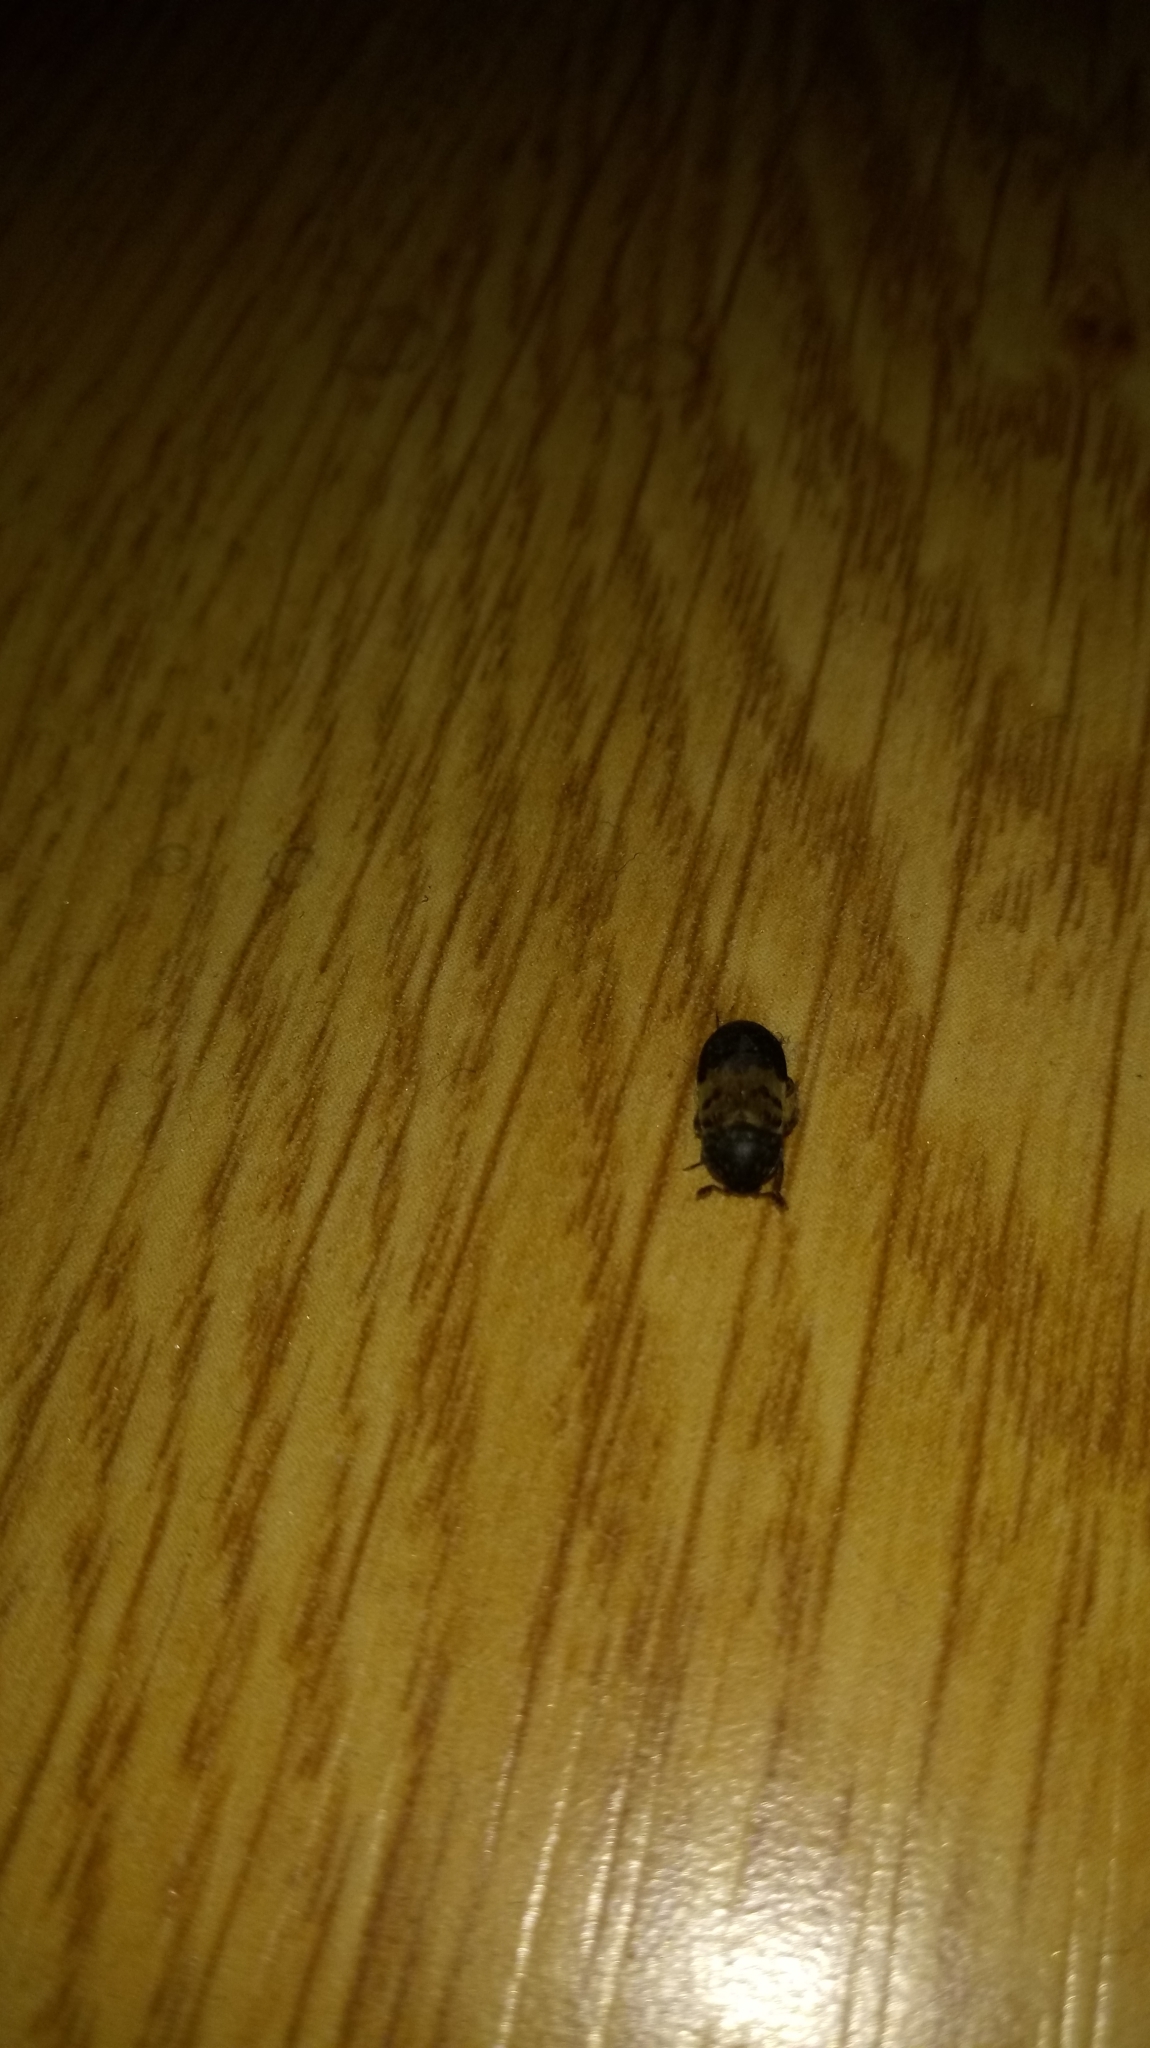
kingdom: Animalia
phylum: Arthropoda
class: Insecta
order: Coleoptera
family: Dermestidae
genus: Dermestes
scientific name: Dermestes lardarius
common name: Larder beetle
